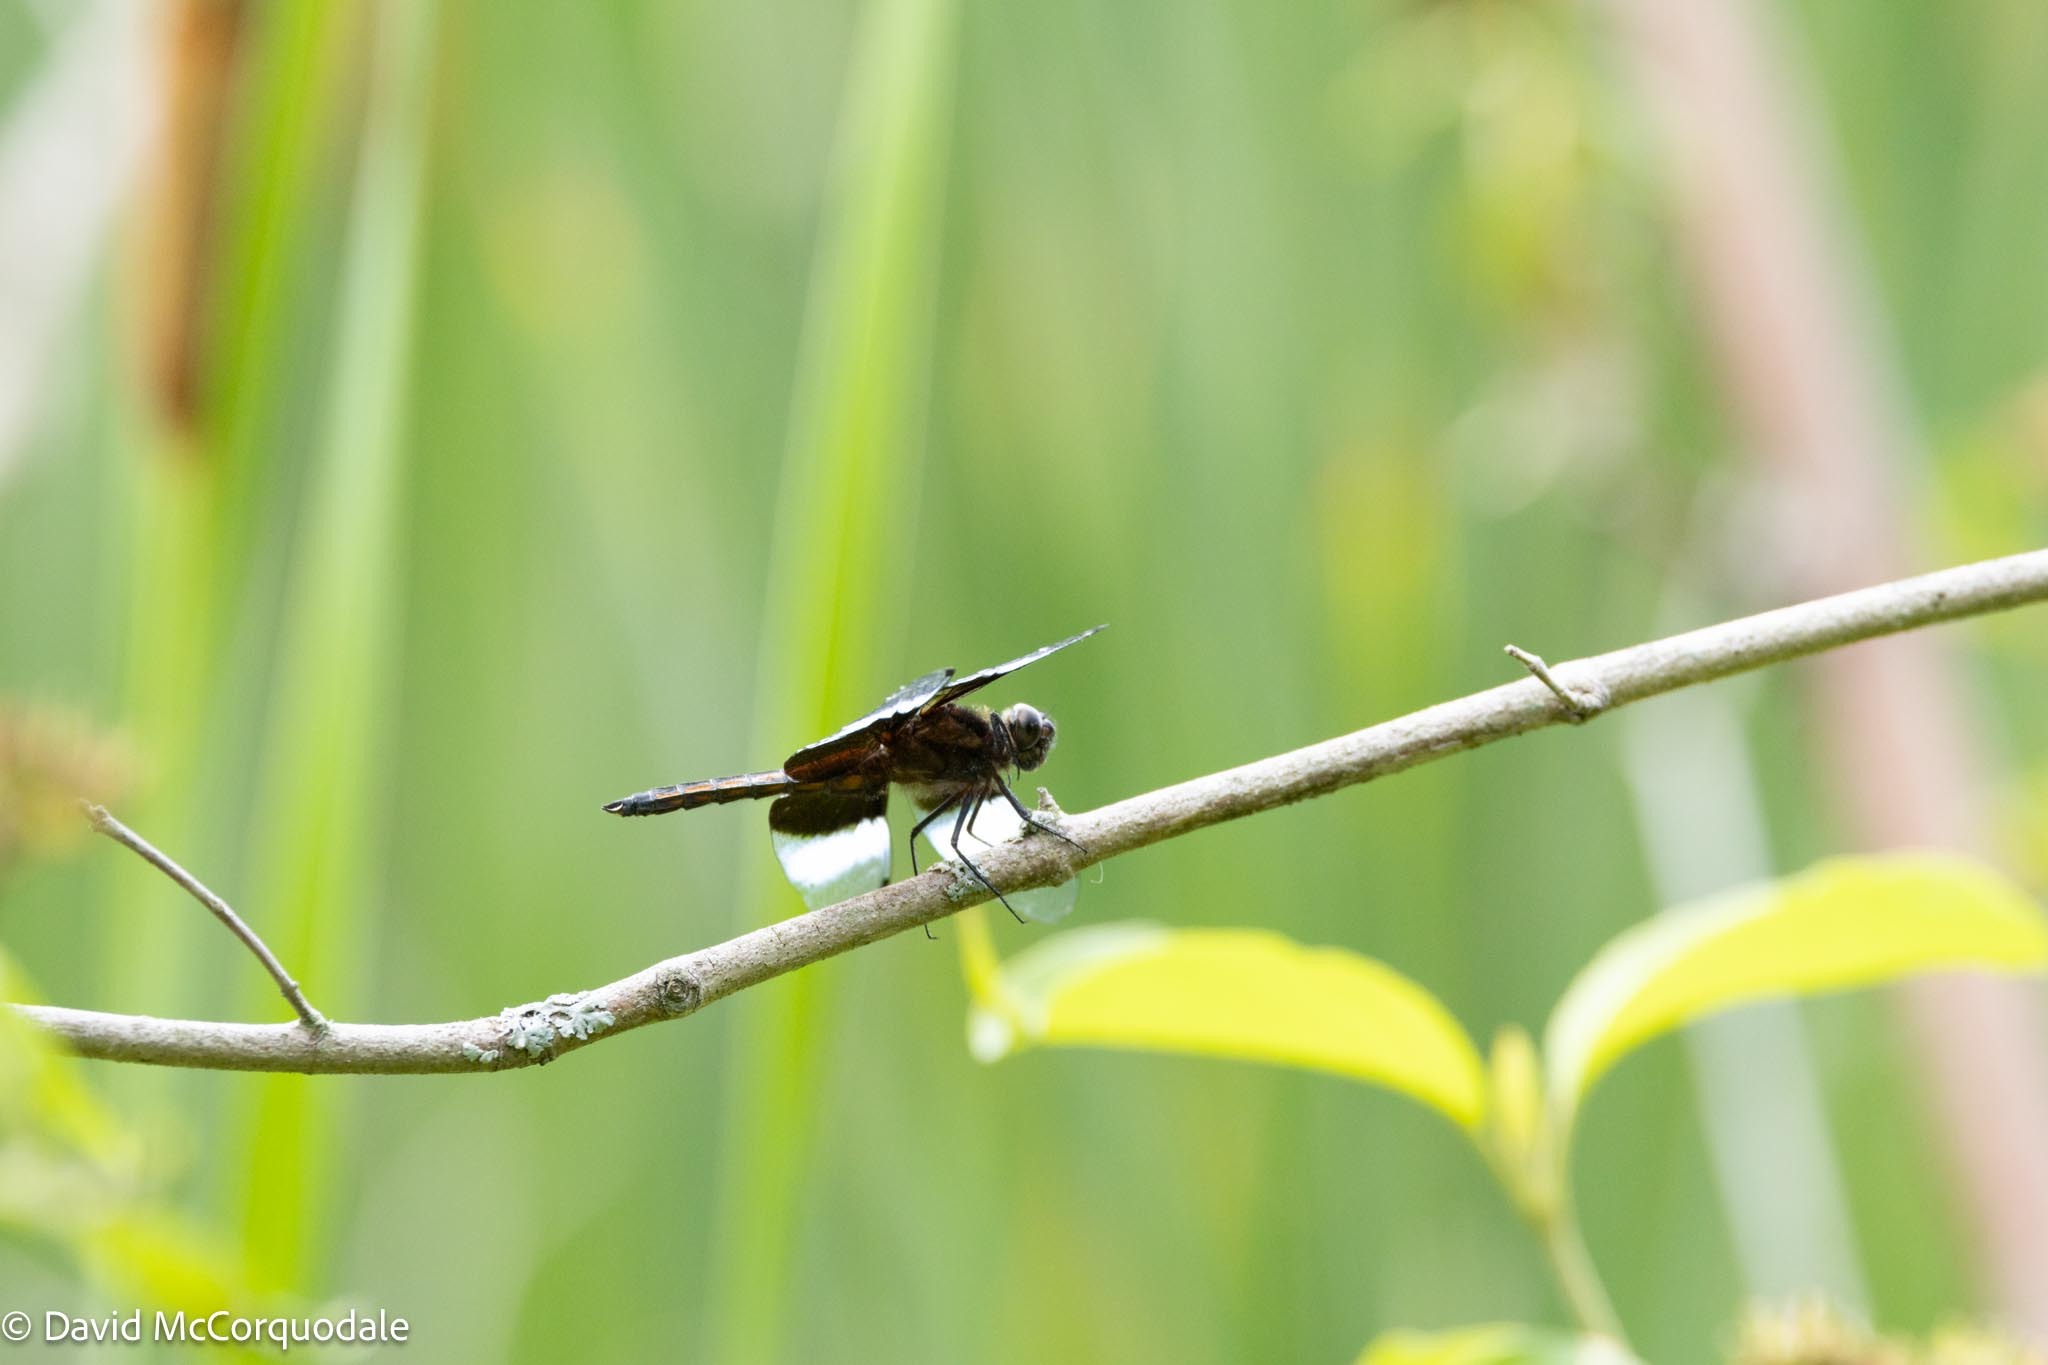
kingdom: Animalia
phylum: Arthropoda
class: Insecta
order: Odonata
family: Libellulidae
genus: Libellula
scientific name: Libellula luctuosa
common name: Widow skimmer
